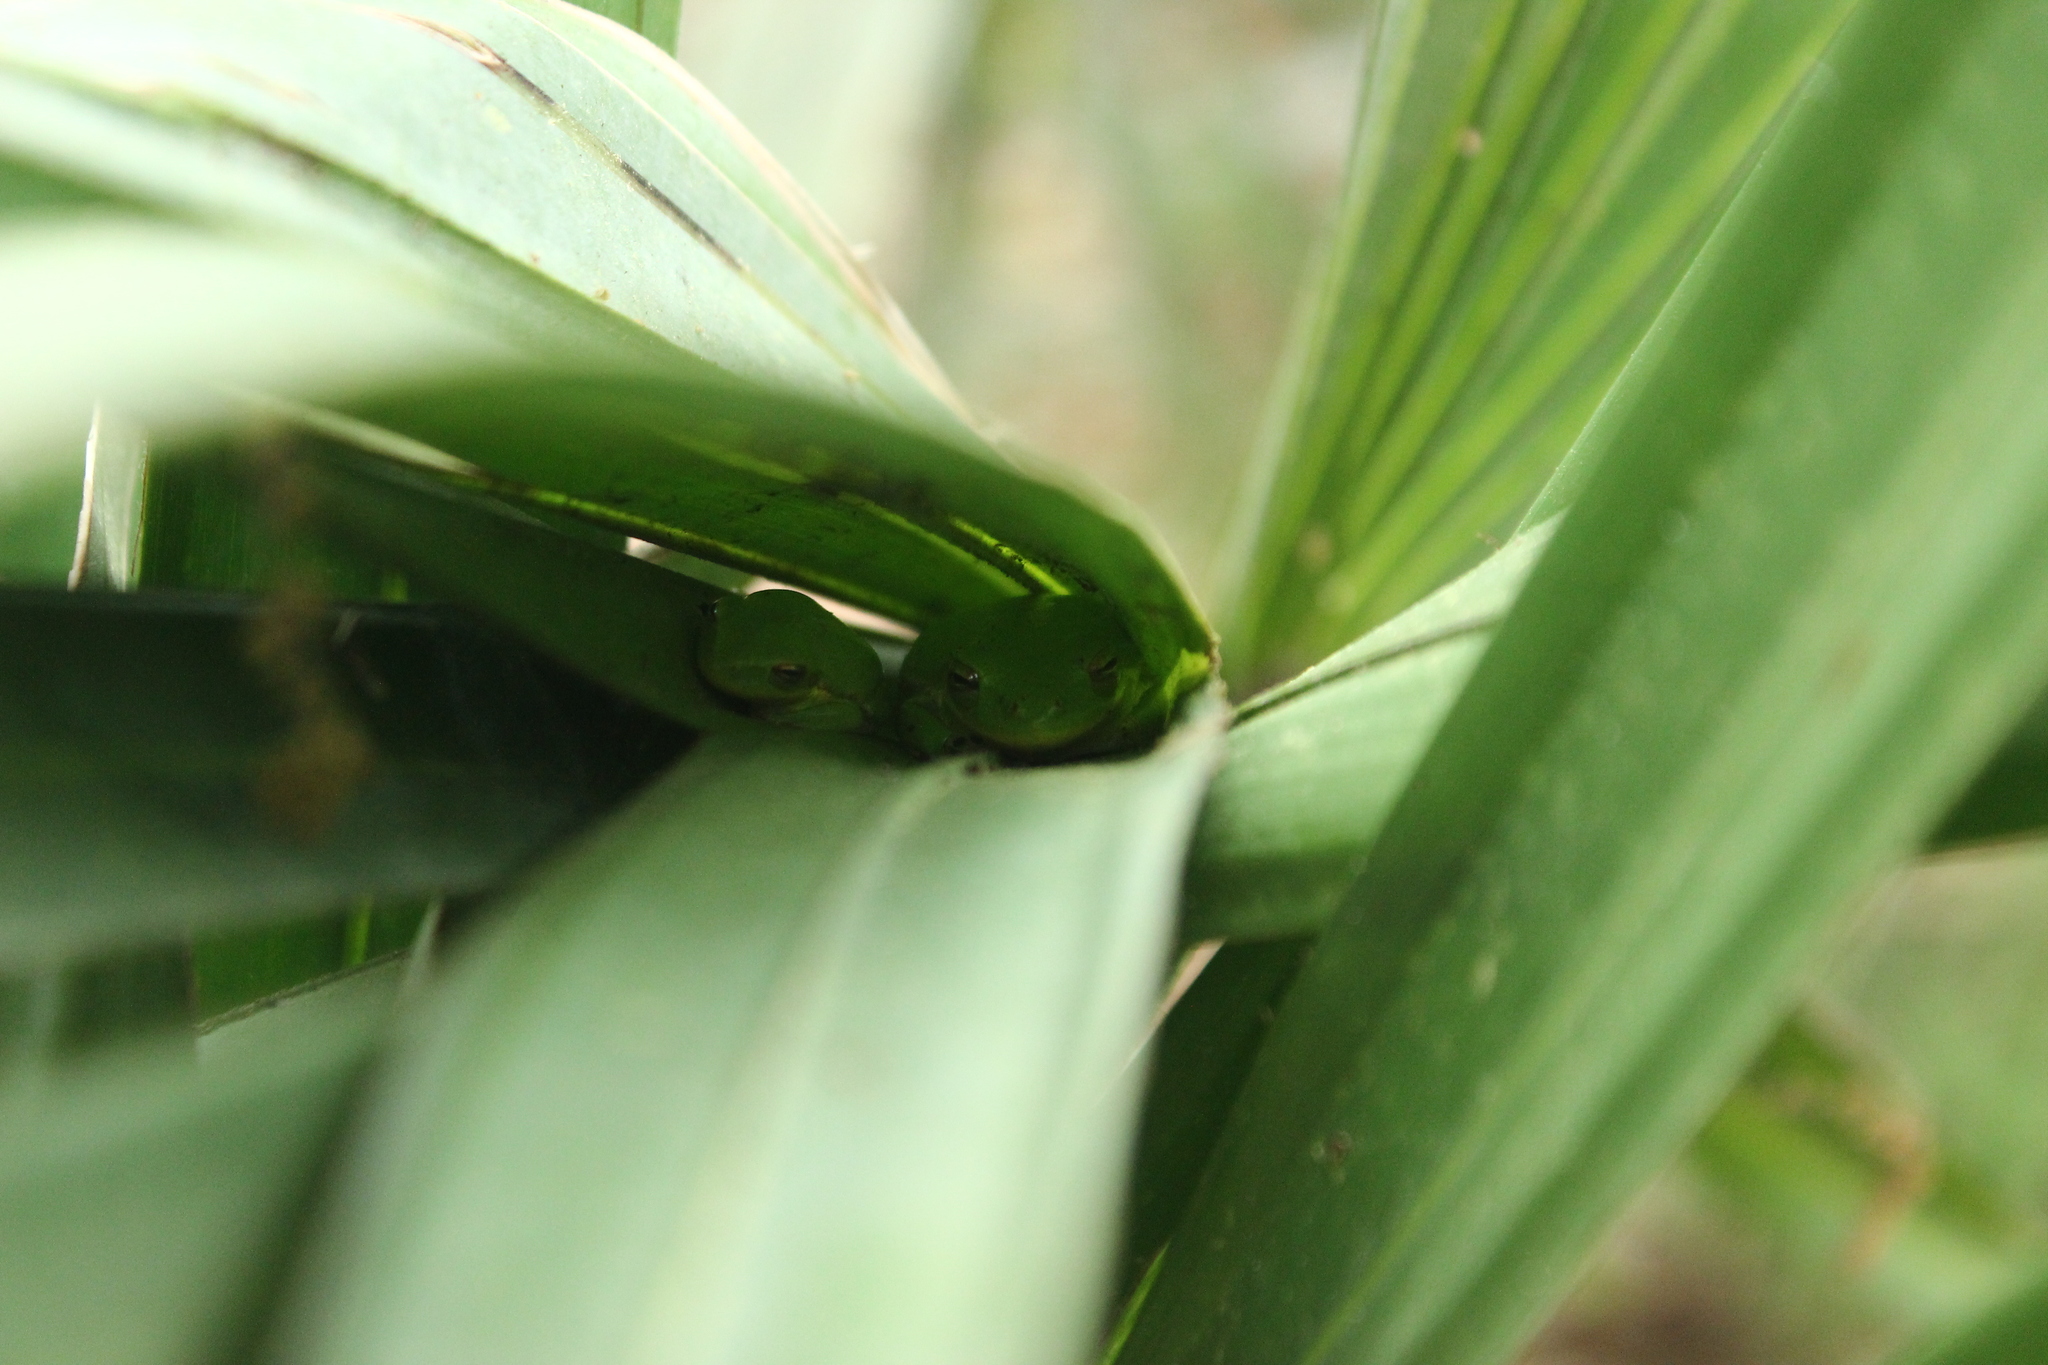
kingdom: Animalia
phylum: Chordata
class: Amphibia
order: Anura
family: Hylidae
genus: Dryophytes
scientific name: Dryophytes squirellus
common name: Squirrel treefrog
